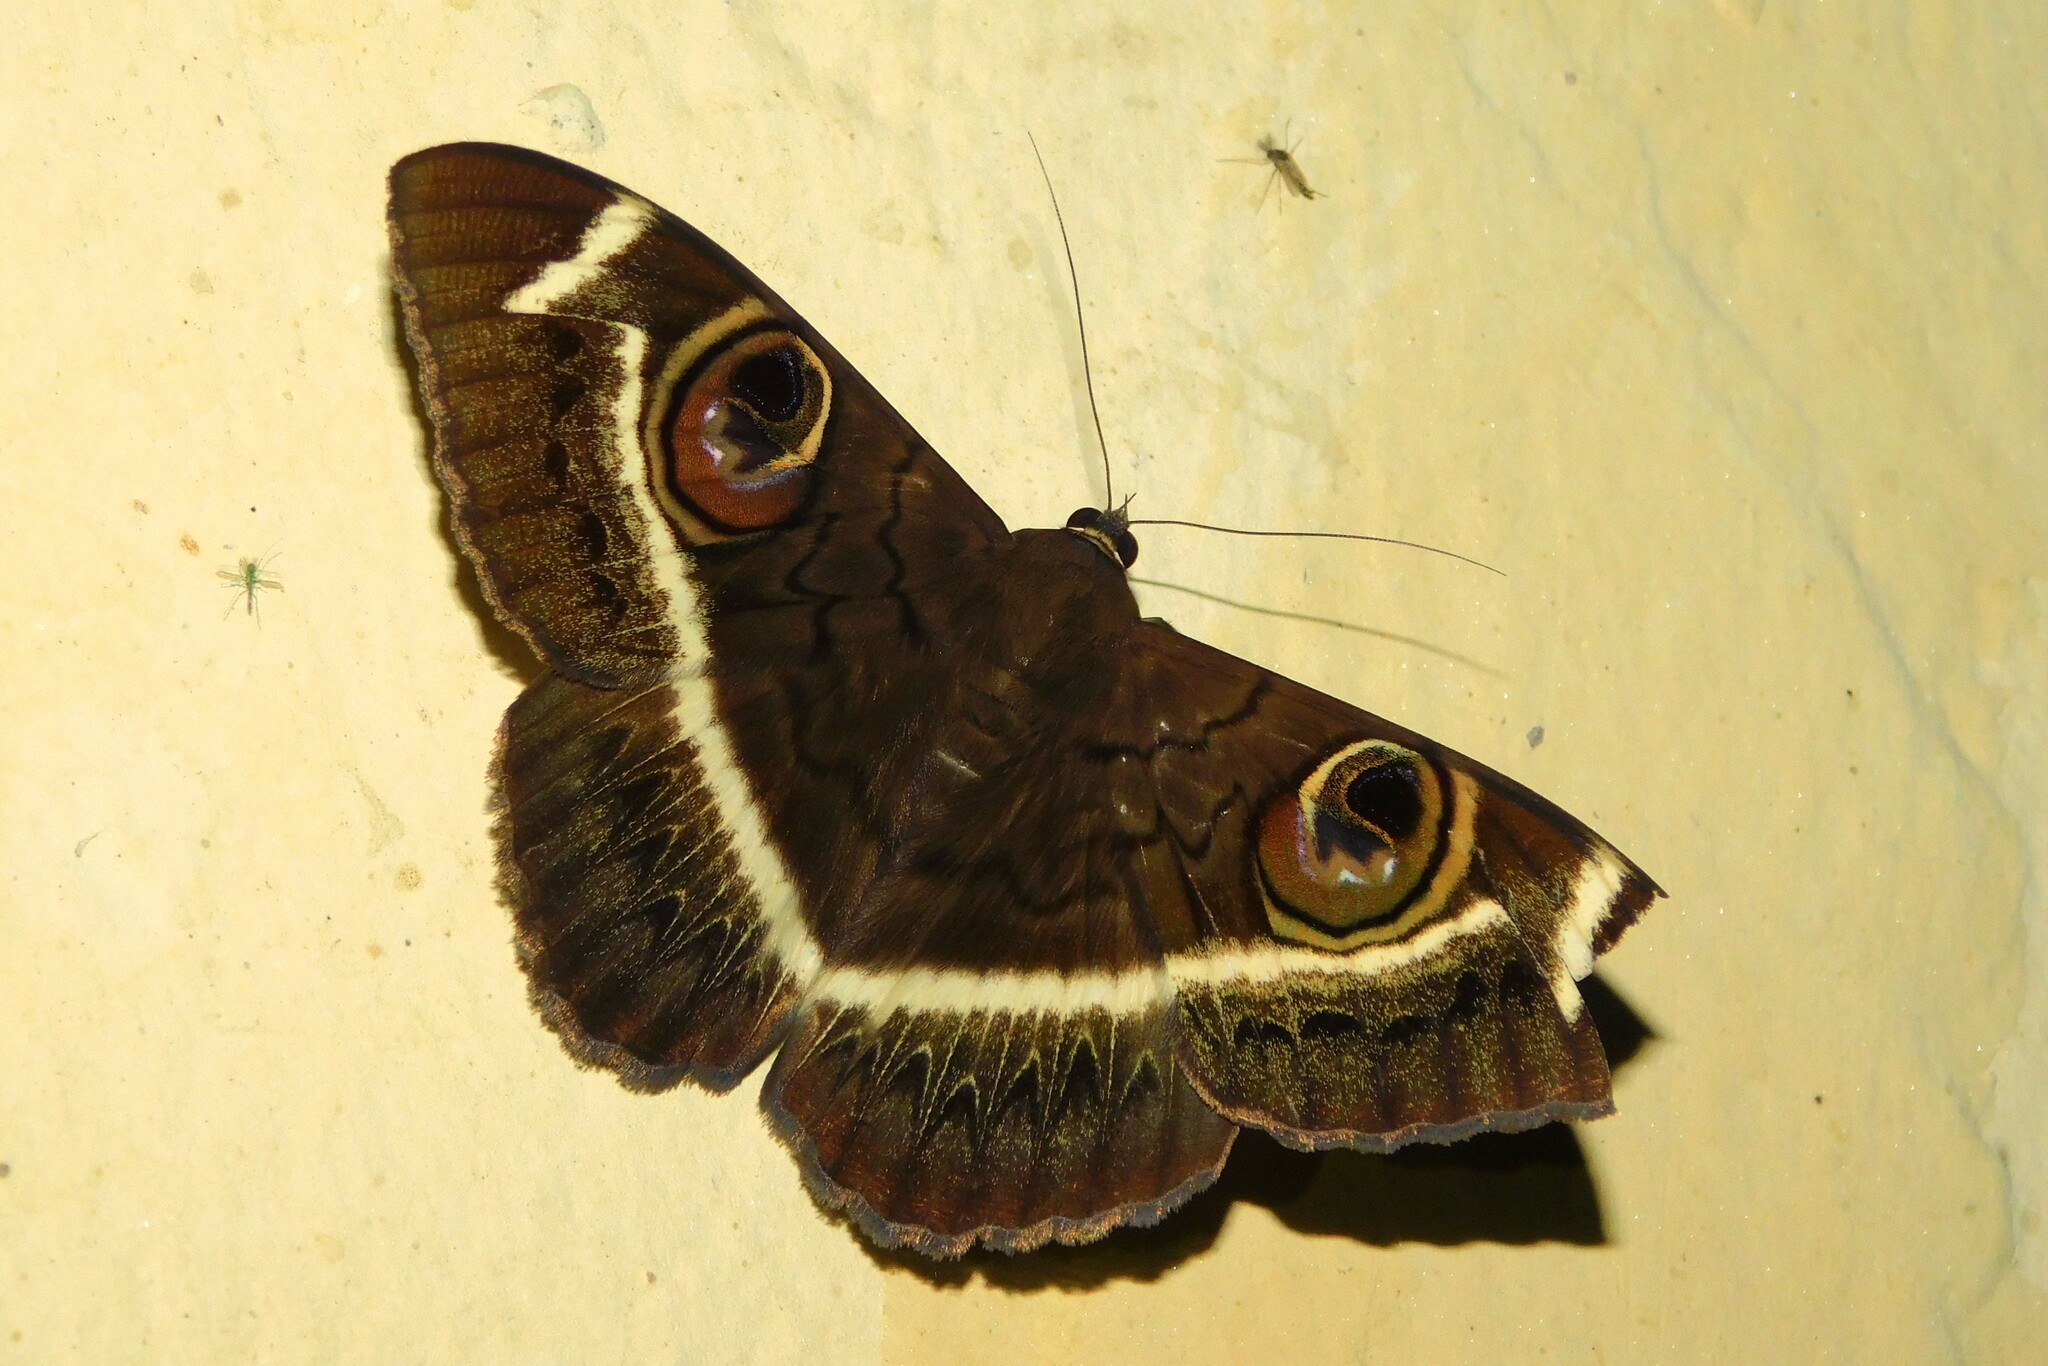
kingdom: Animalia
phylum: Arthropoda
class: Insecta
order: Lepidoptera
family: Erebidae
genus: Cyligramma
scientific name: Cyligramma latona
